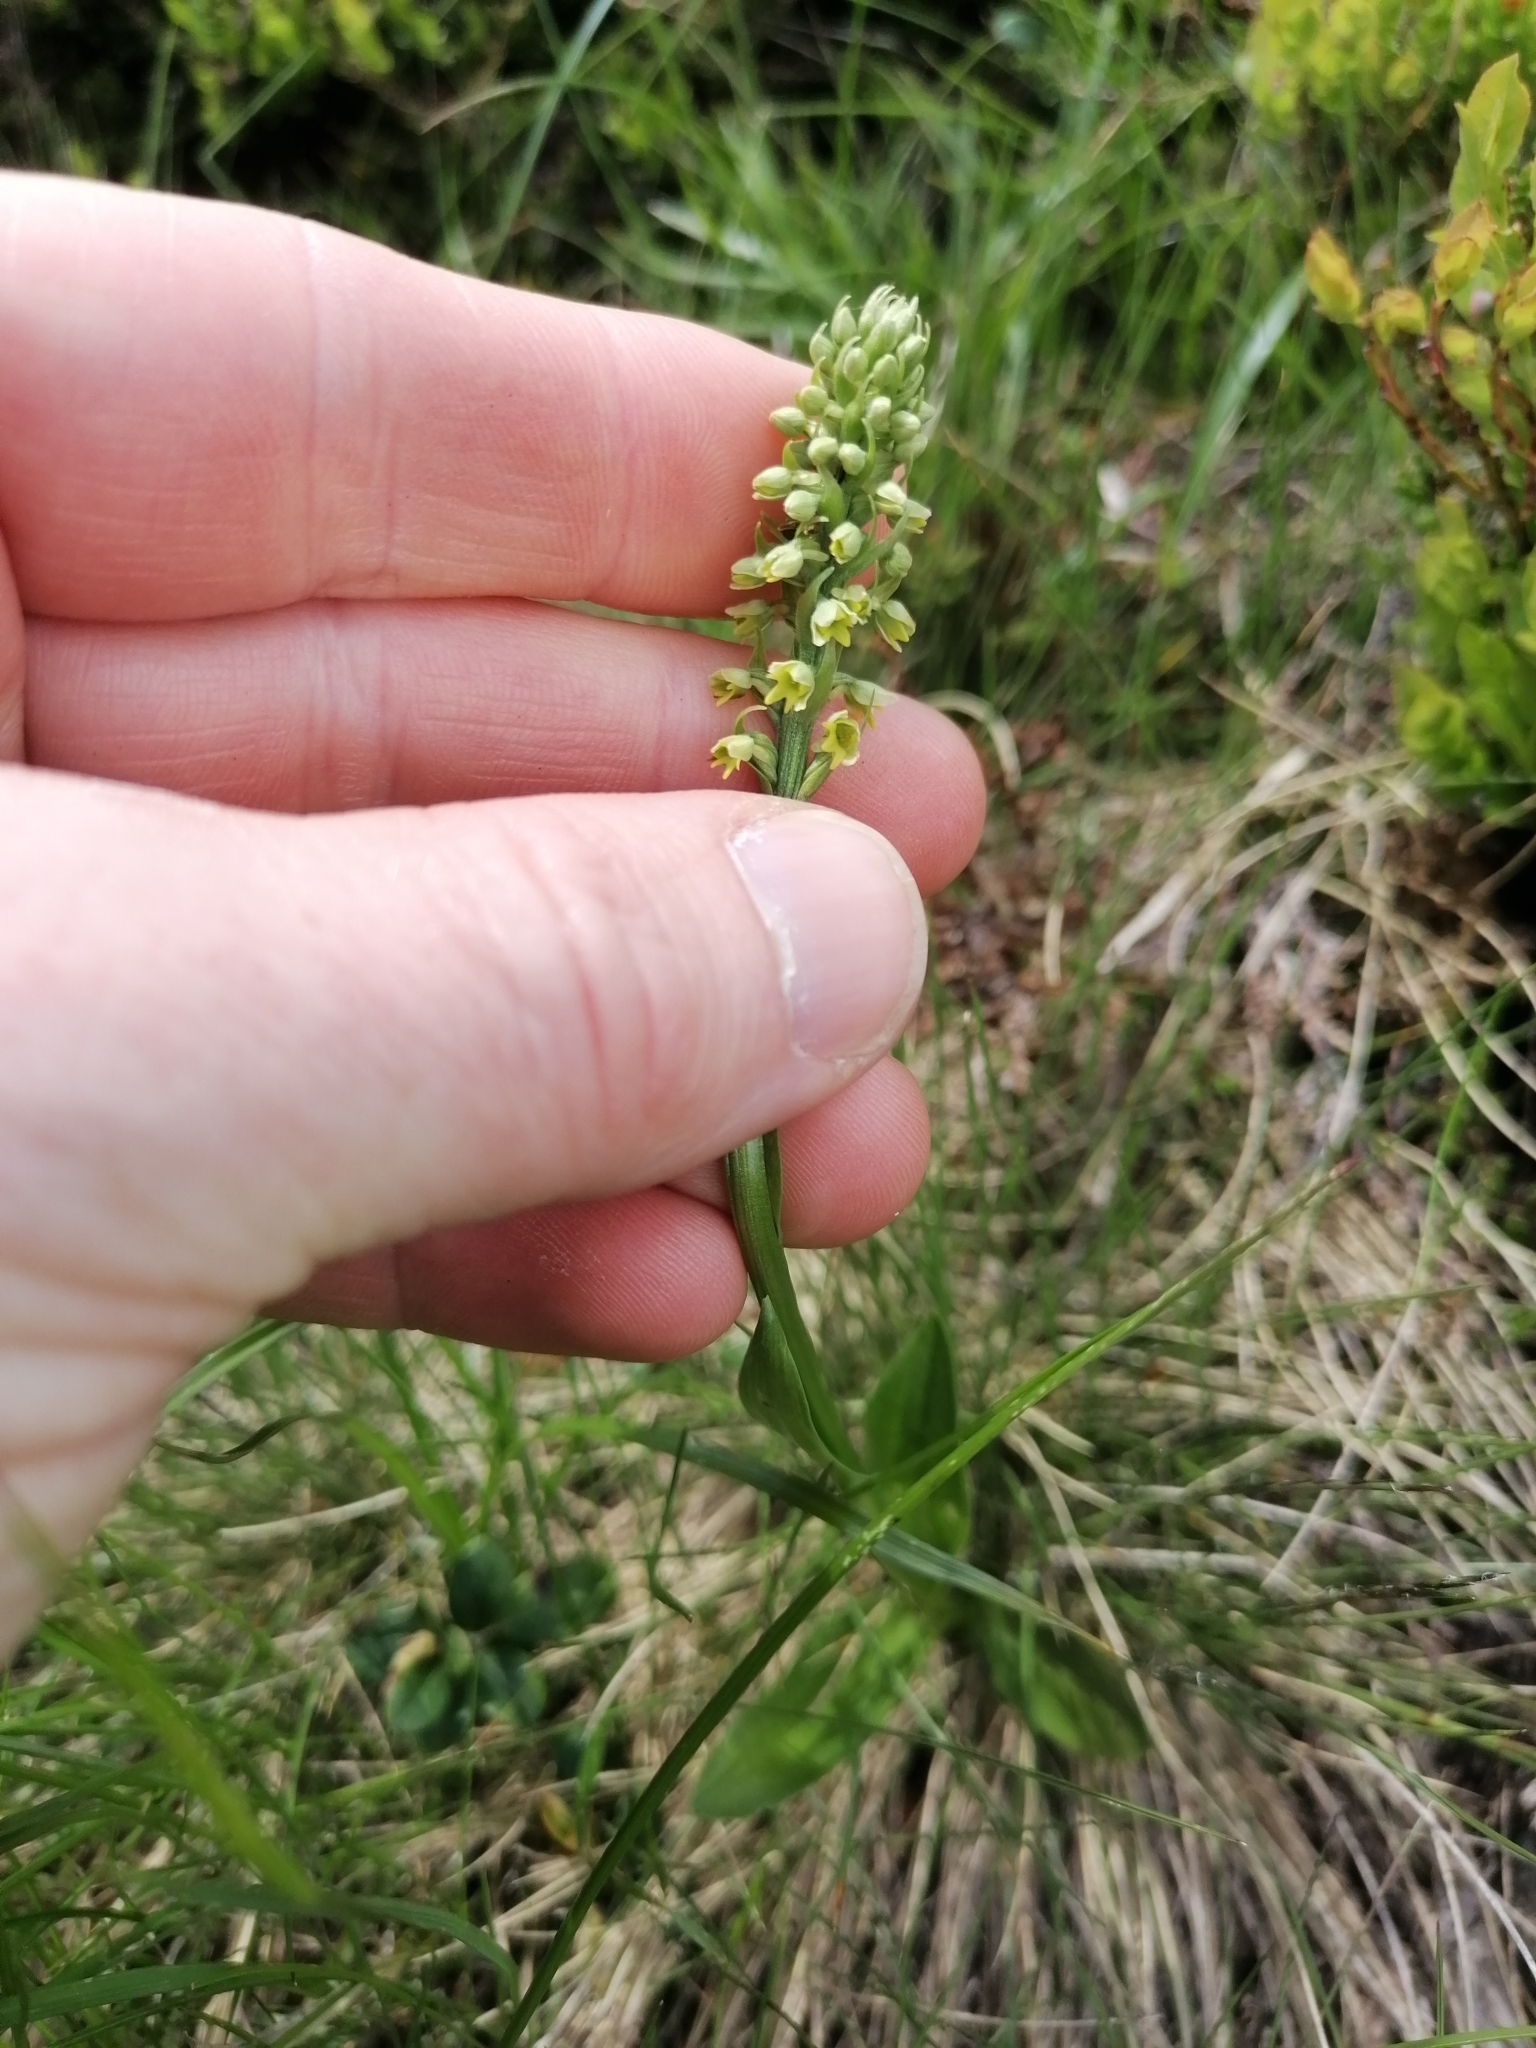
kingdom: Plantae
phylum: Tracheophyta
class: Liliopsida
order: Asparagales
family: Orchidaceae
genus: Pseudorchis
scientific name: Pseudorchis albida
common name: Small-white orchid
